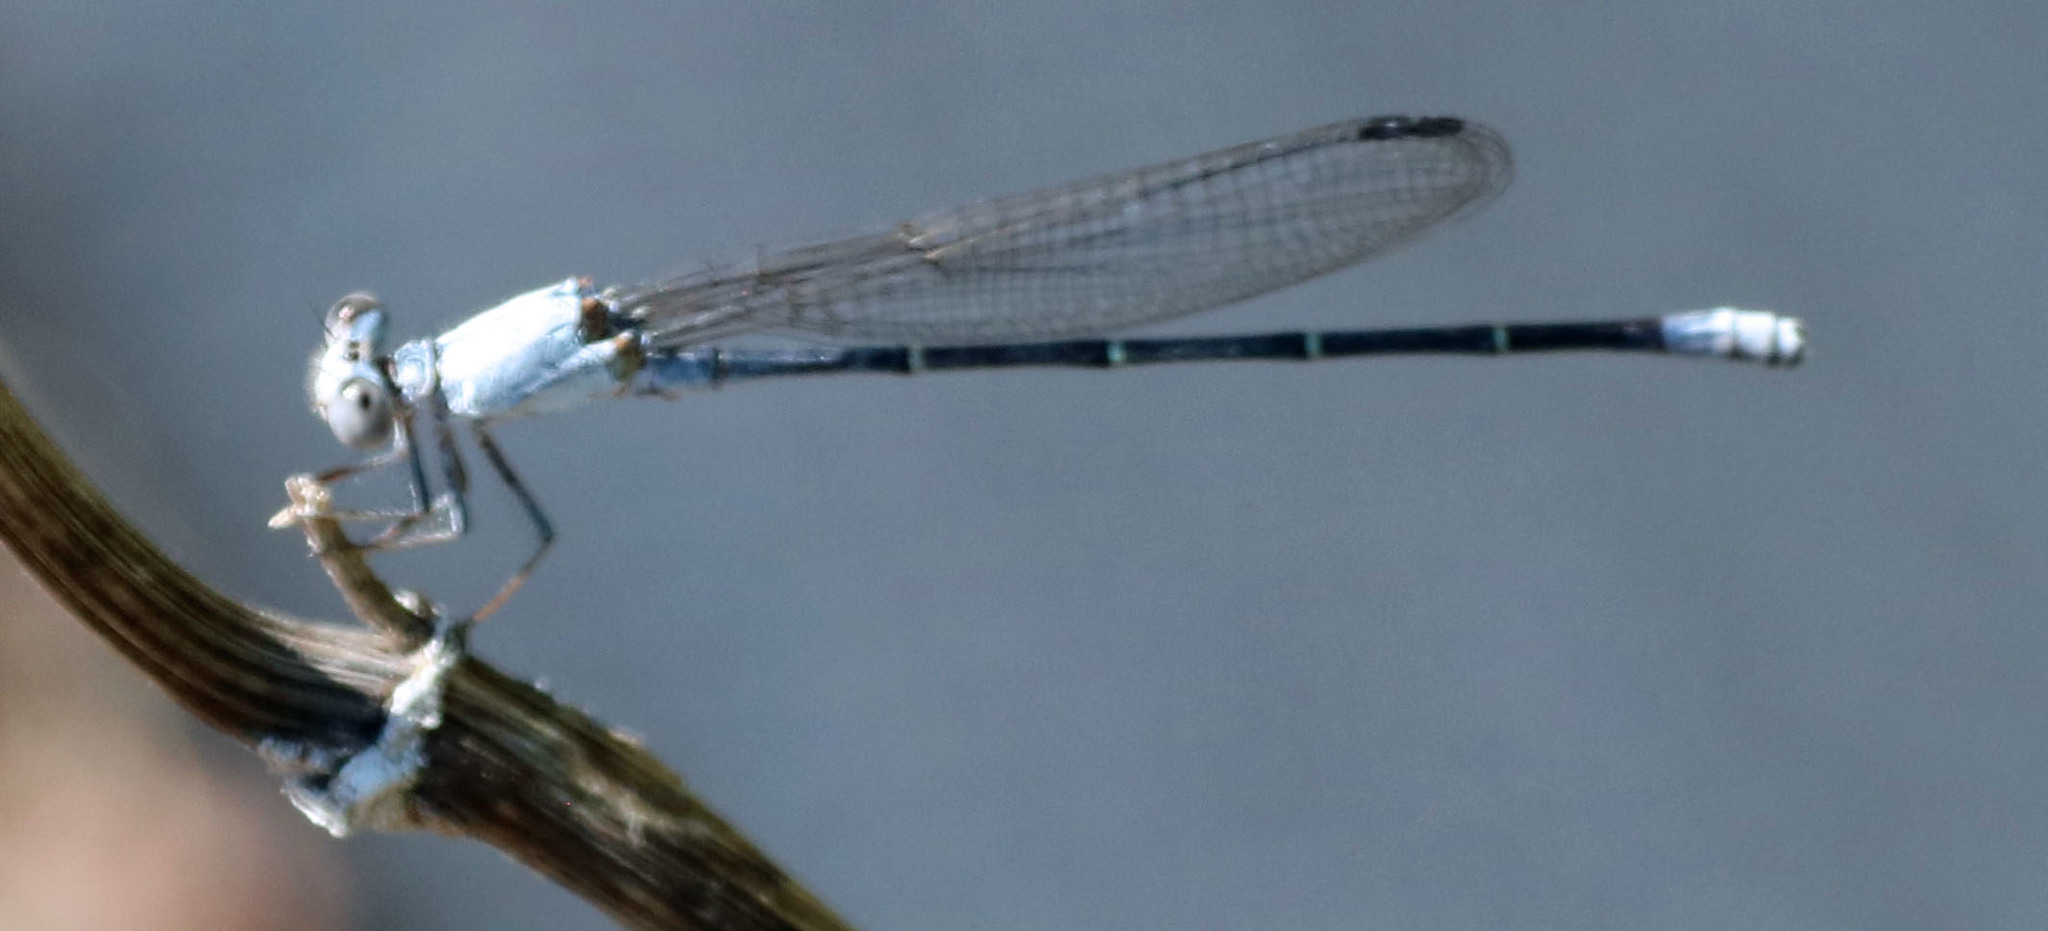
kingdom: Animalia
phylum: Arthropoda
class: Insecta
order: Odonata
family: Coenagrionidae
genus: Argia
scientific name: Argia moesta
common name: Powdered dancer
